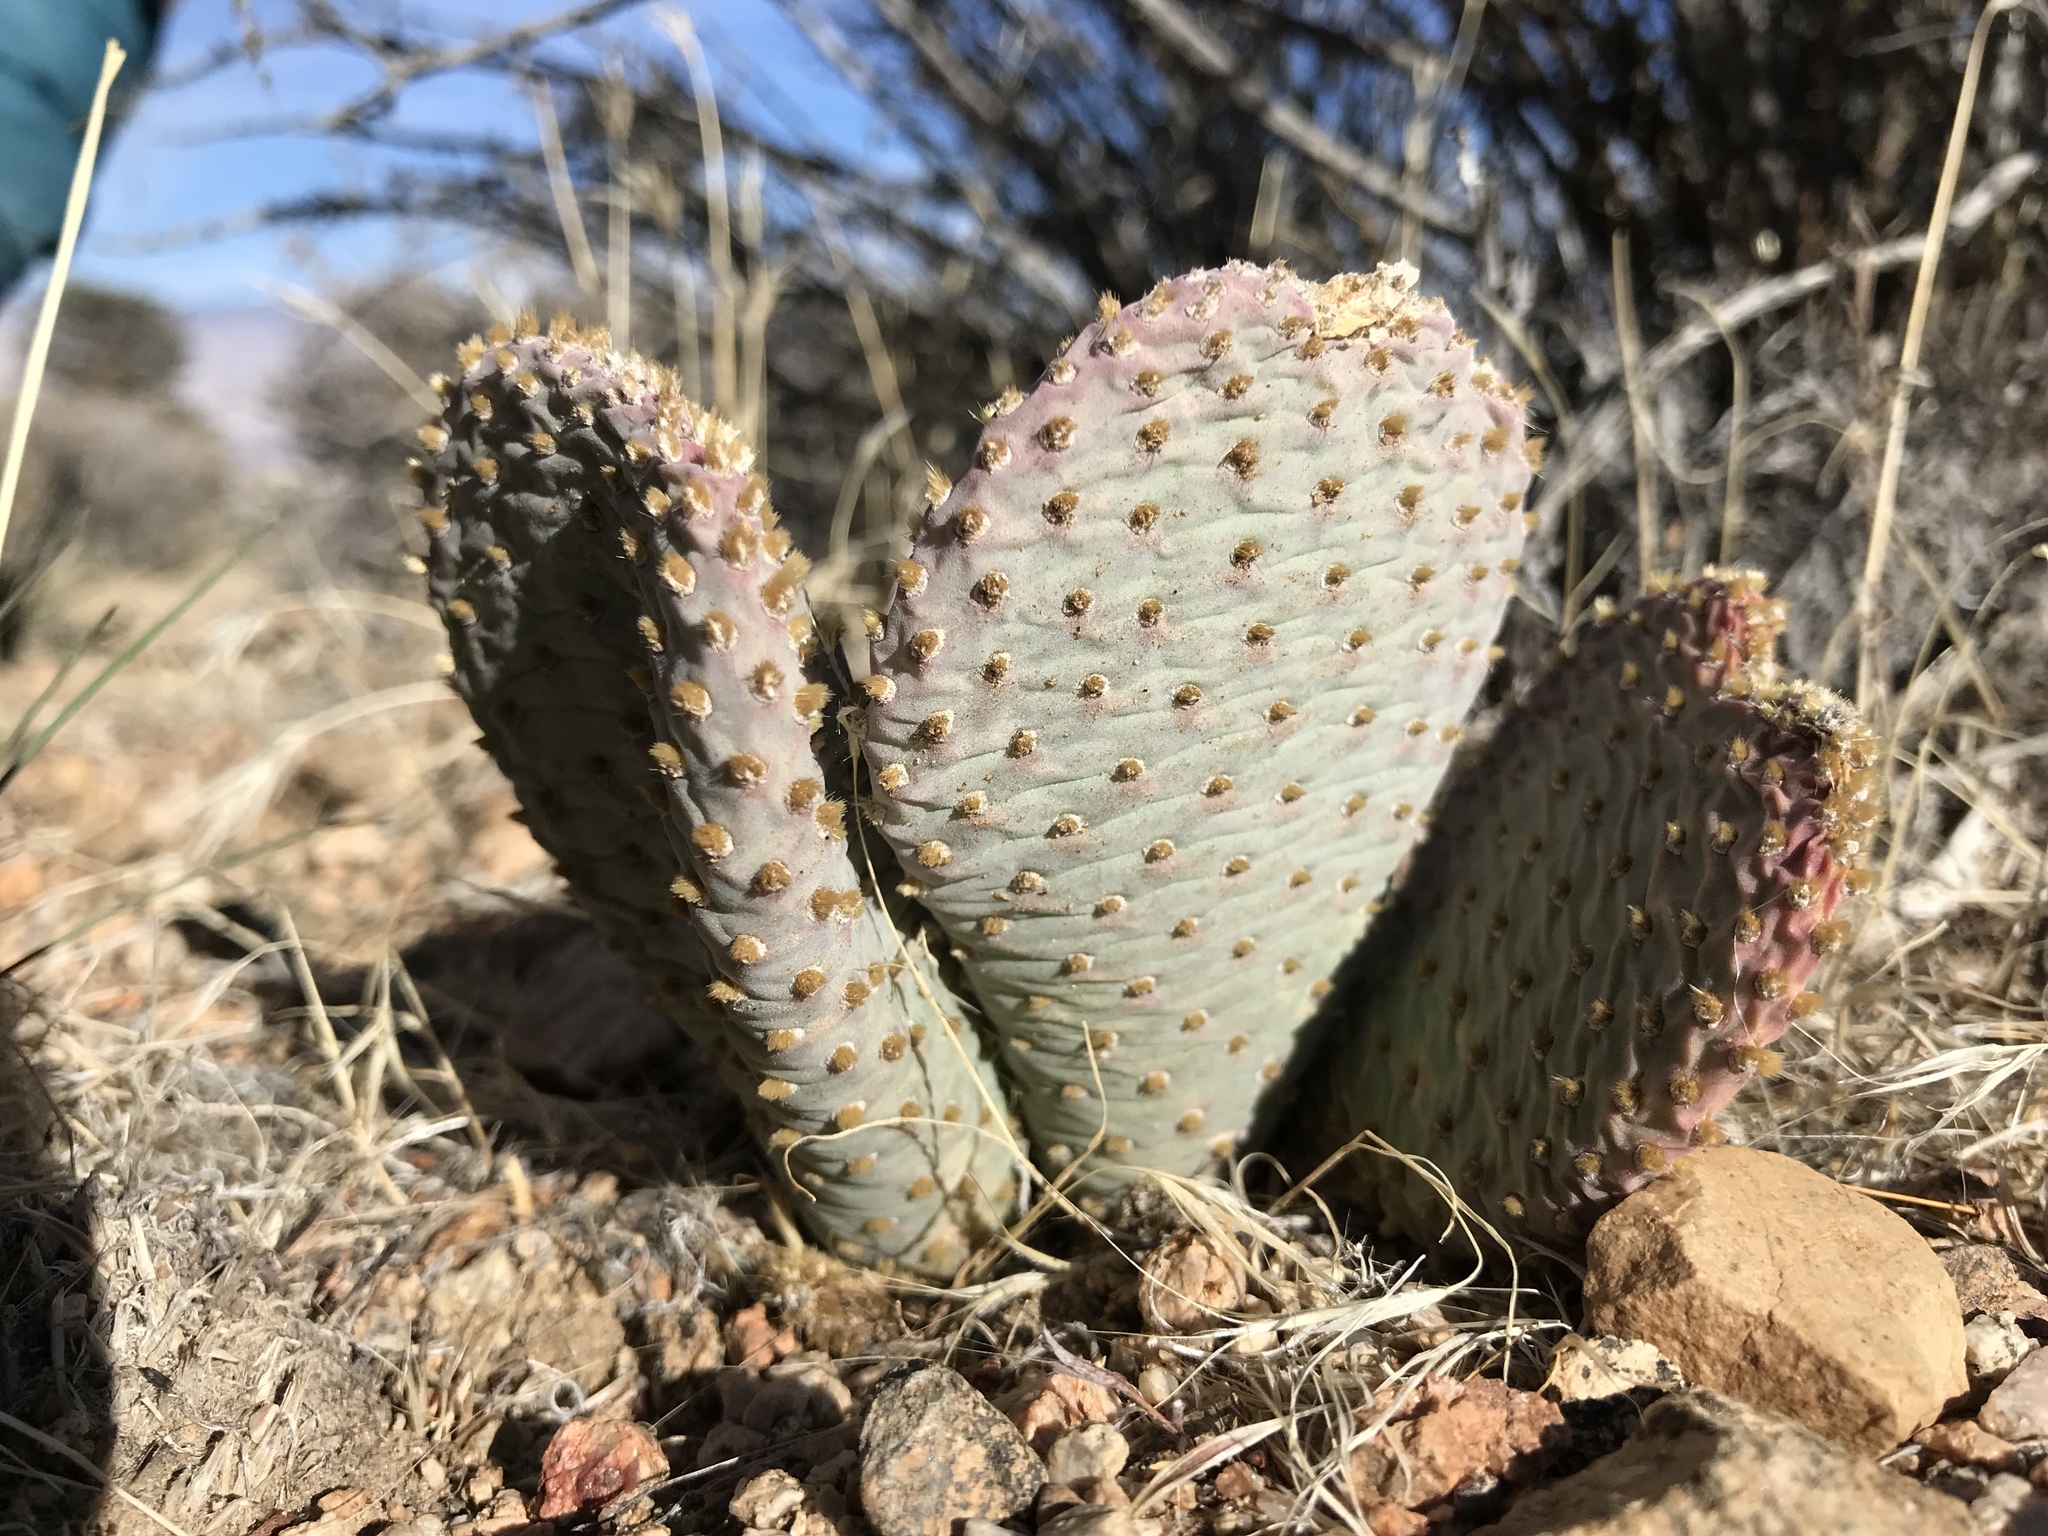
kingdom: Plantae
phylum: Tracheophyta
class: Magnoliopsida
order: Caryophyllales
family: Cactaceae
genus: Opuntia
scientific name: Opuntia basilaris
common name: Beavertail prickly-pear
